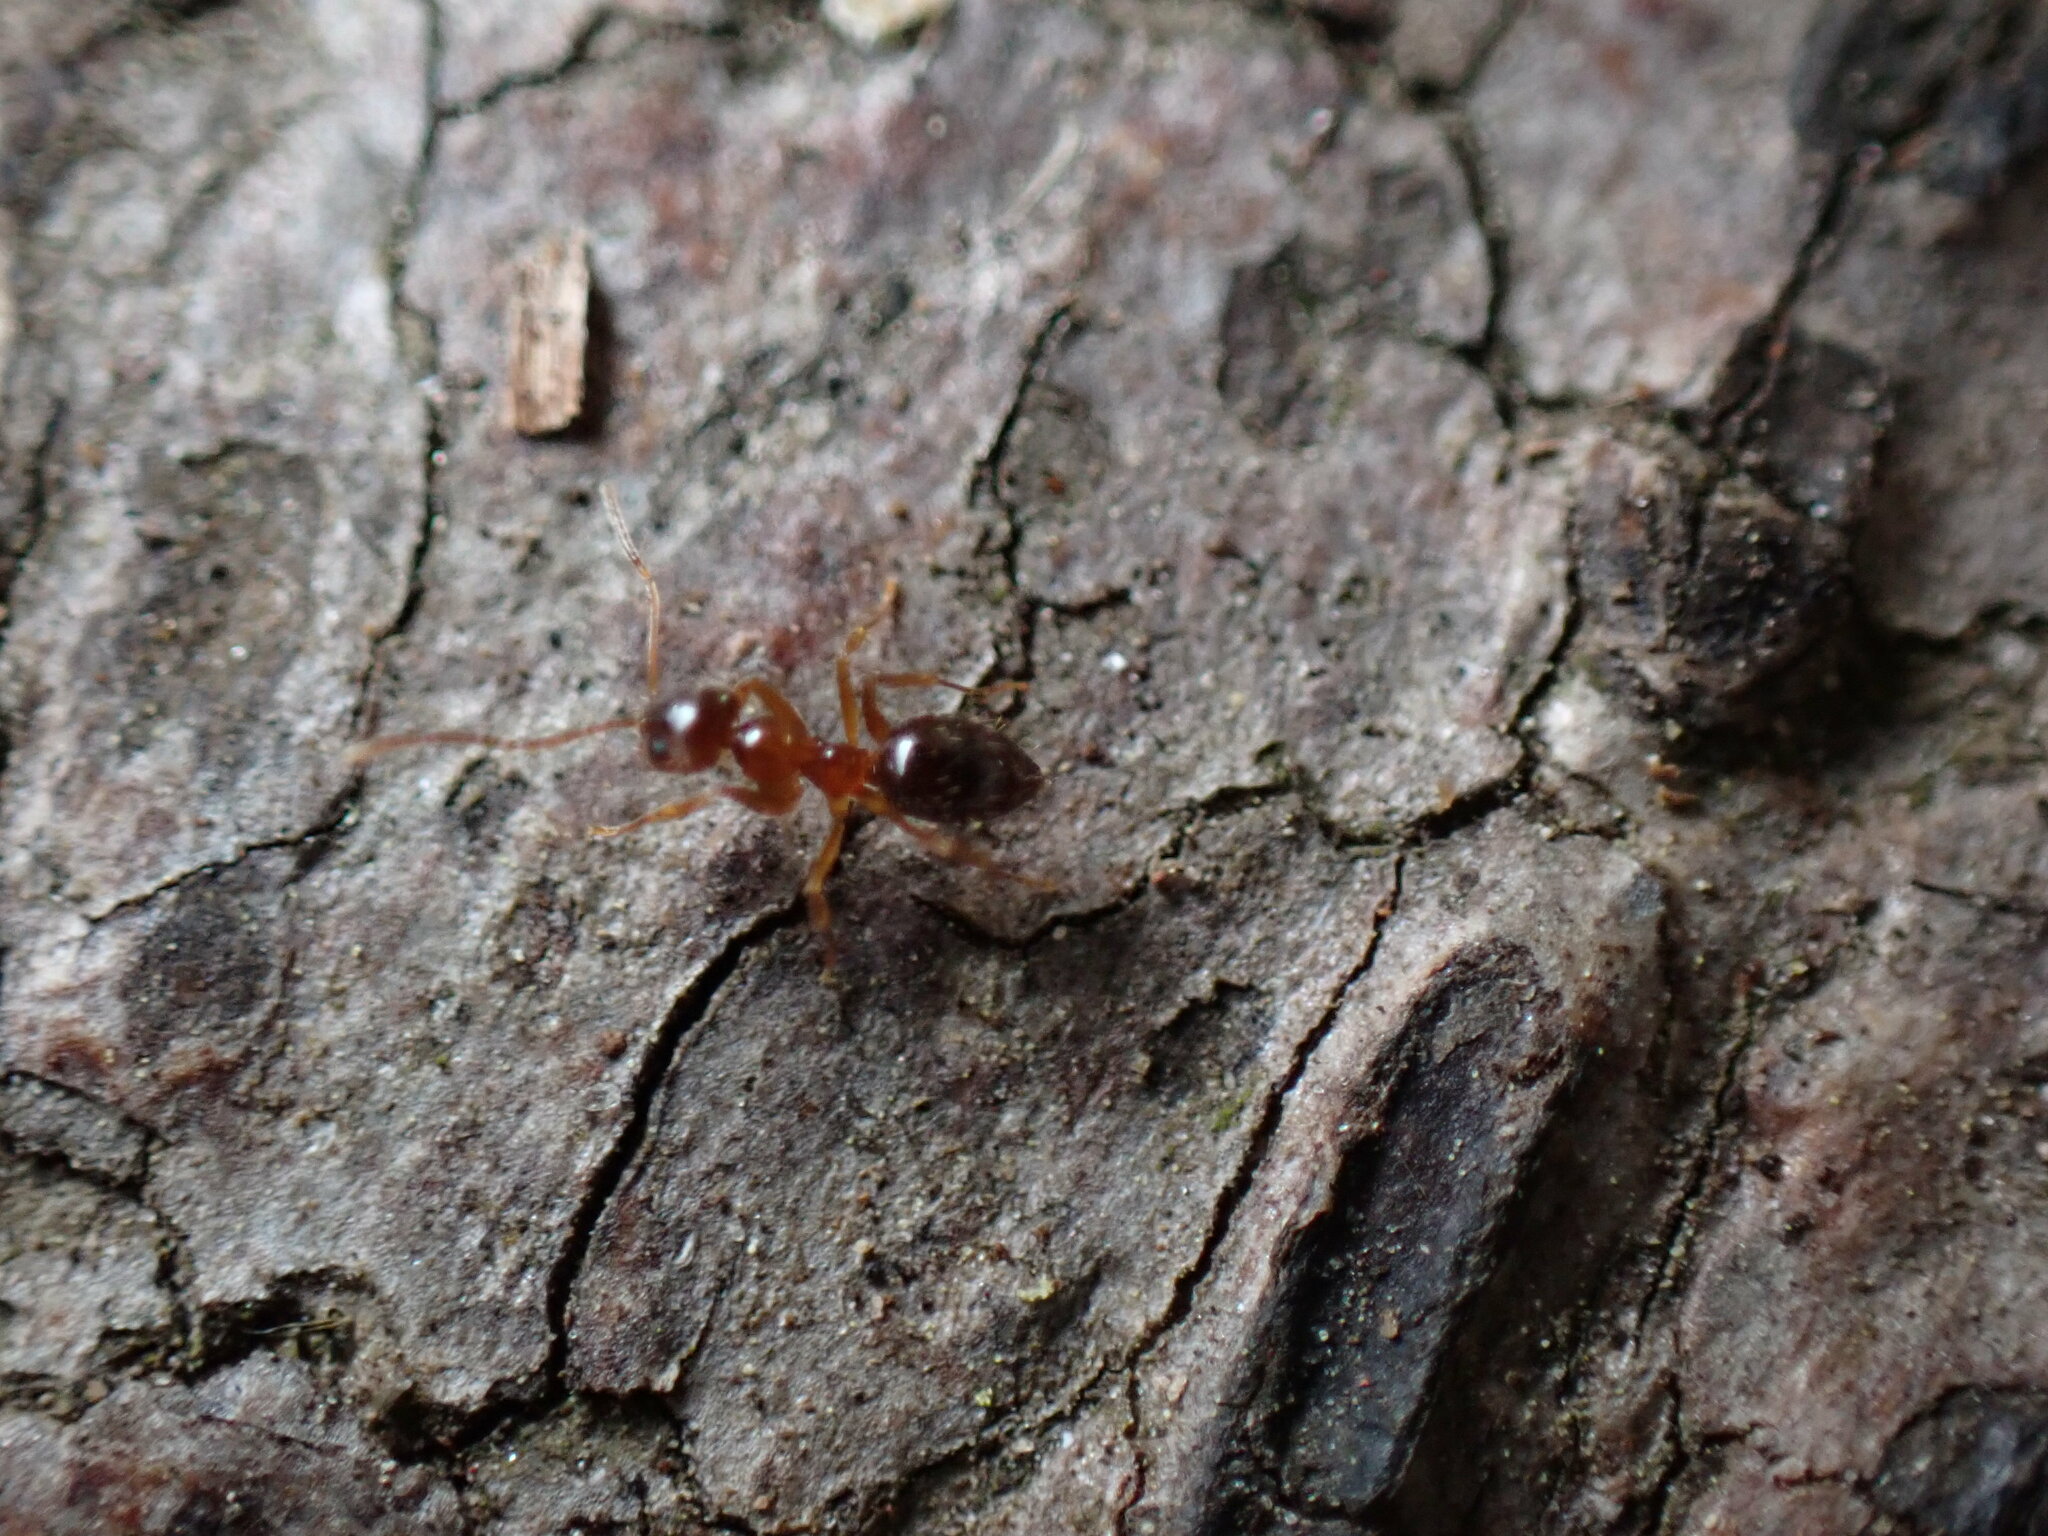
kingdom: Animalia
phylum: Arthropoda
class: Insecta
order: Hymenoptera
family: Formicidae
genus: Paratrechina
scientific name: Paratrechina flavipes
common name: Eastern asian formicine ant
